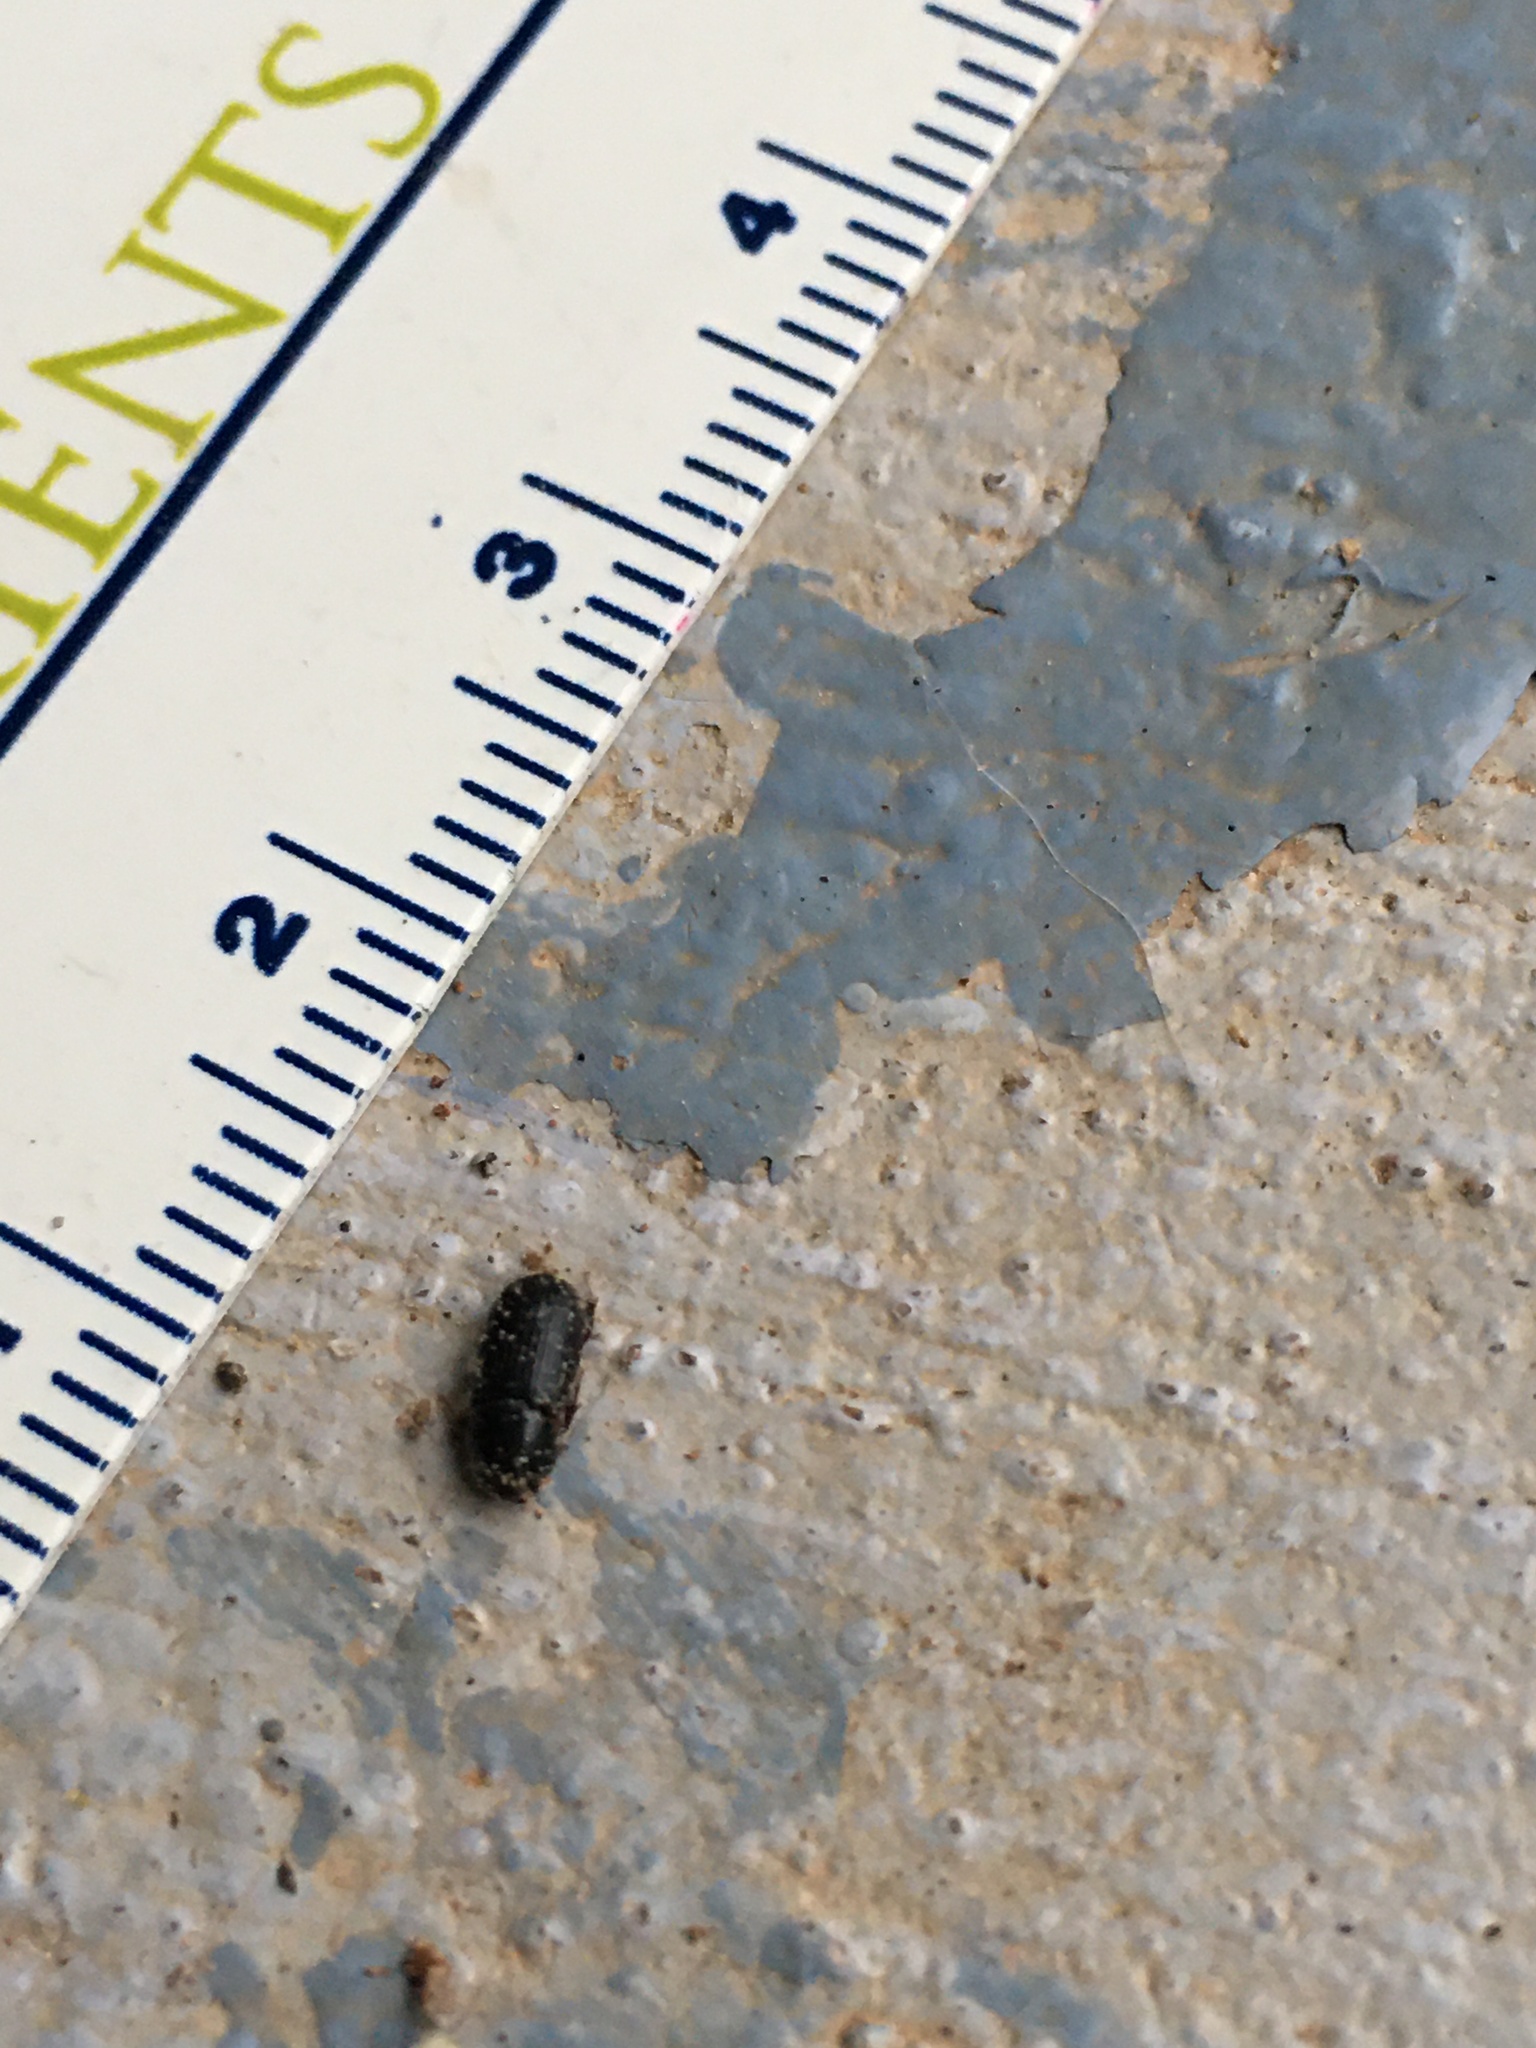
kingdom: Animalia
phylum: Arthropoda
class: Insecta
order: Coleoptera
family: Scarabaeidae
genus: Euetheola
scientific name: Euetheola humilis
